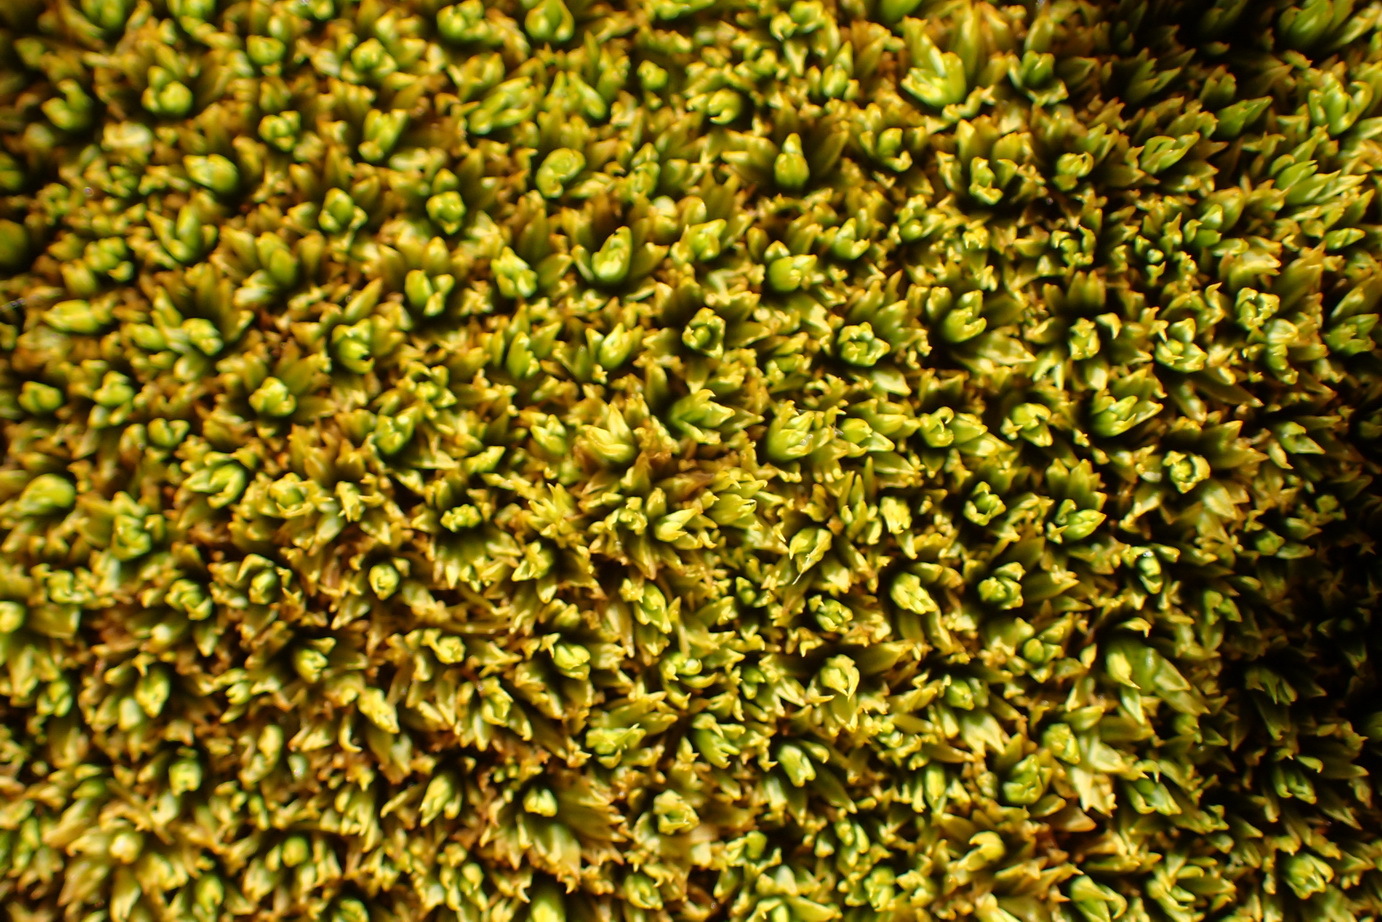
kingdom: Plantae
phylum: Bryophyta
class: Bryopsida
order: Dicranales
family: Hypodontiaceae
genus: Hypodontium
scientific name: Hypodontium pomiforme
